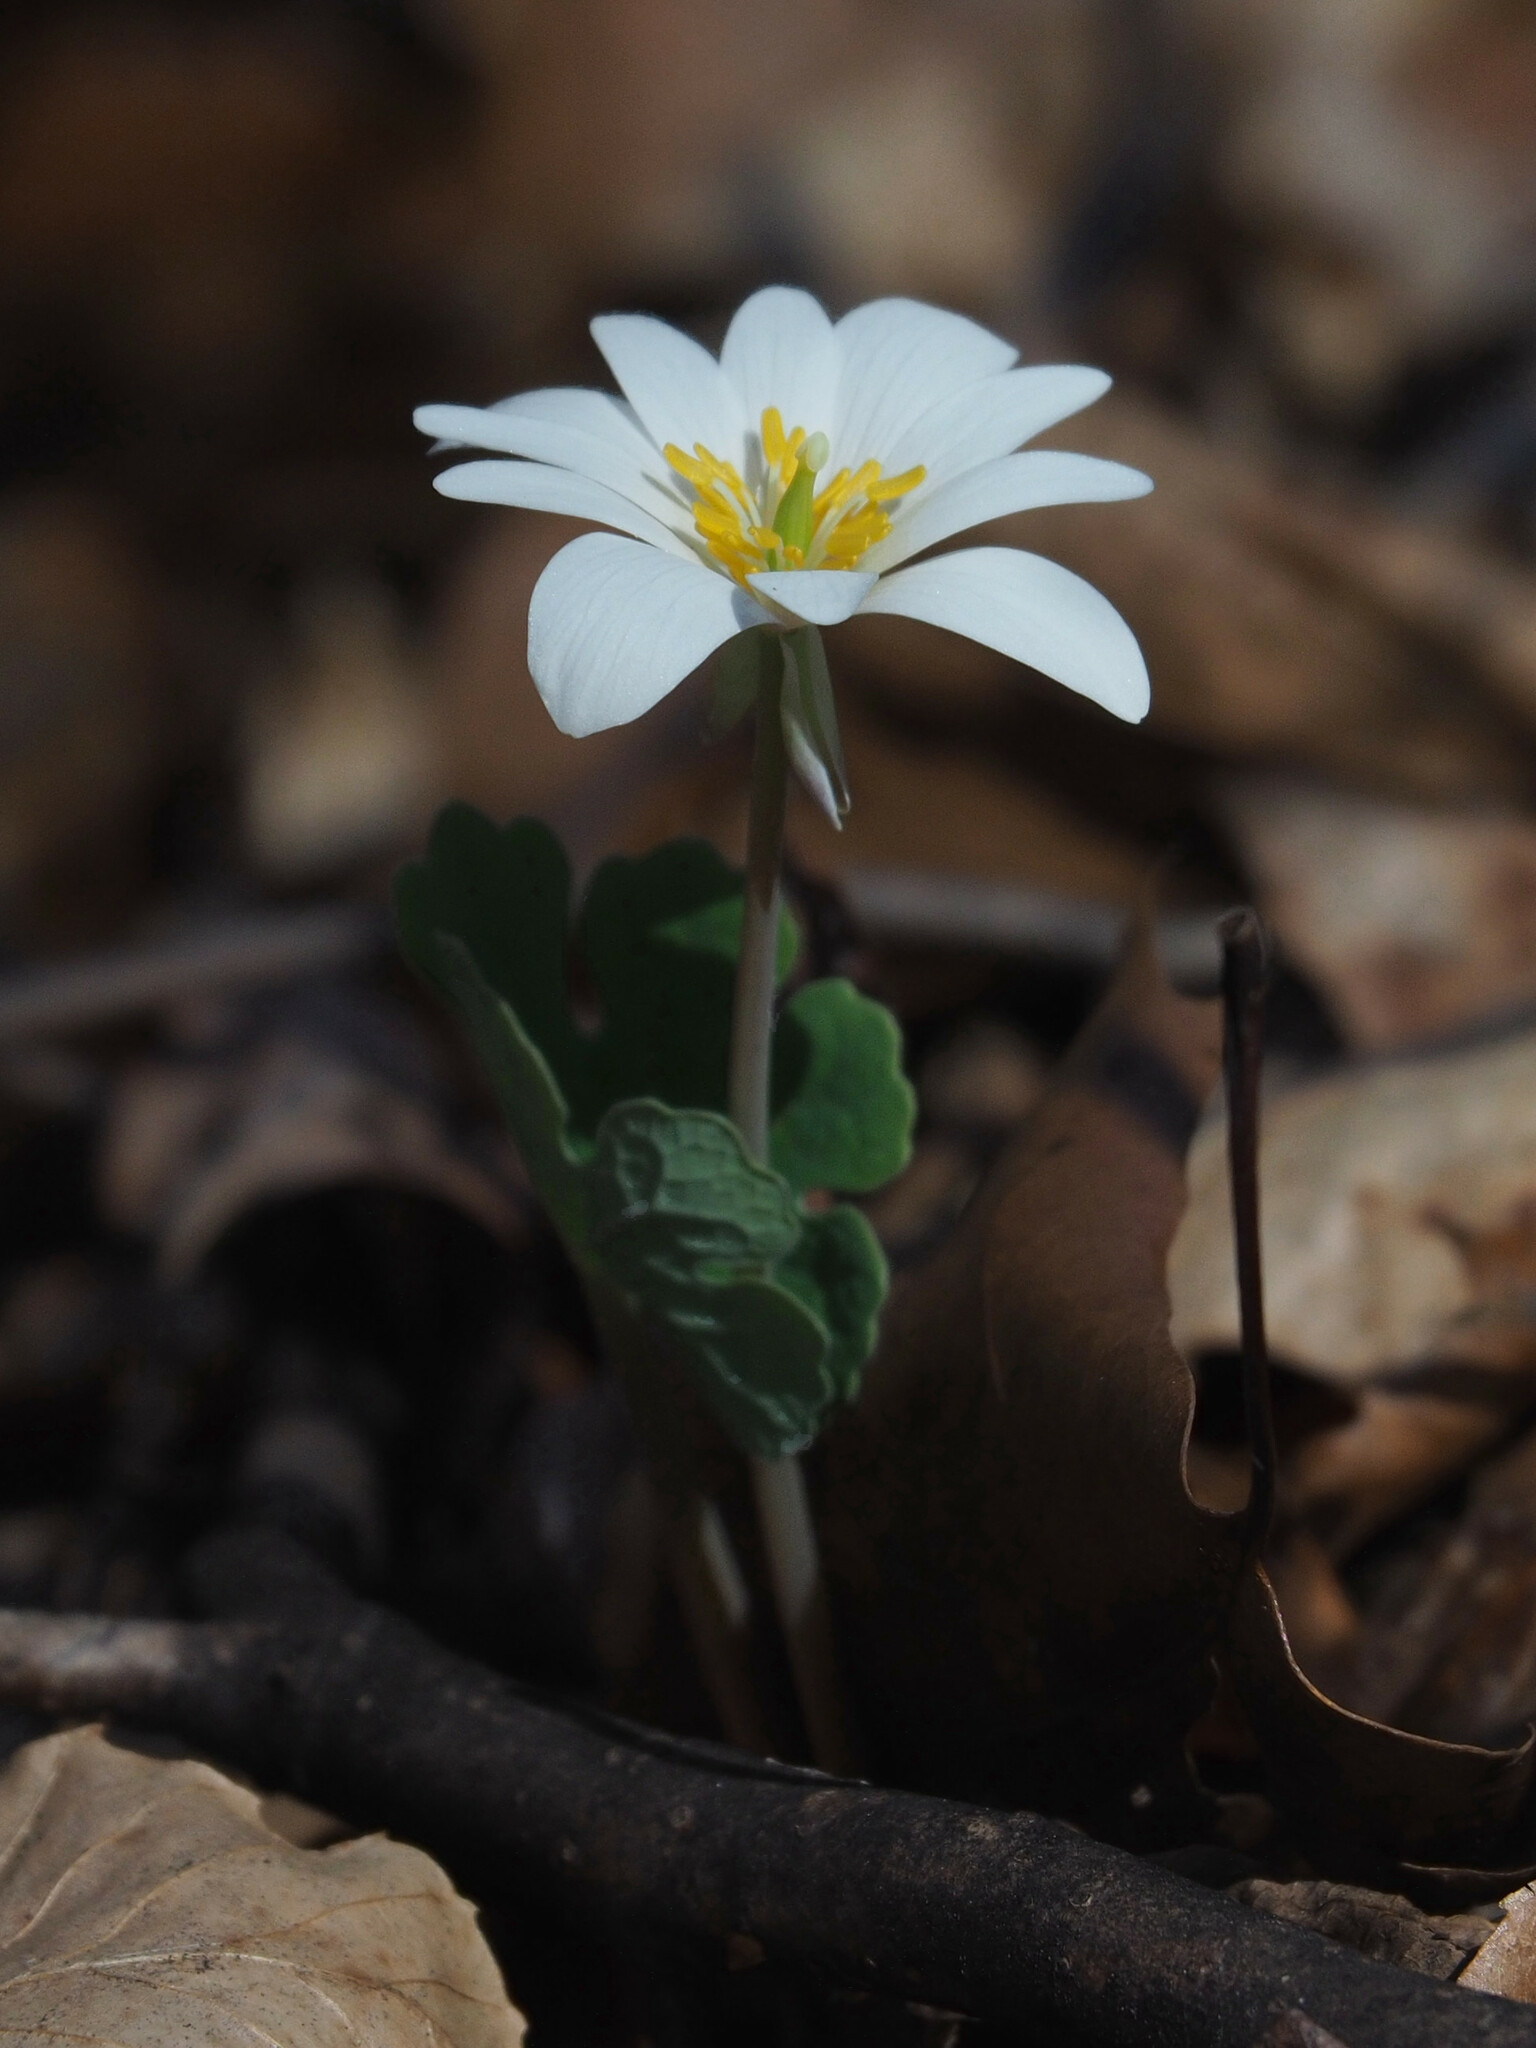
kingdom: Plantae
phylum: Tracheophyta
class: Magnoliopsida
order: Ranunculales
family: Papaveraceae
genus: Sanguinaria
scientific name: Sanguinaria canadensis
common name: Bloodroot
